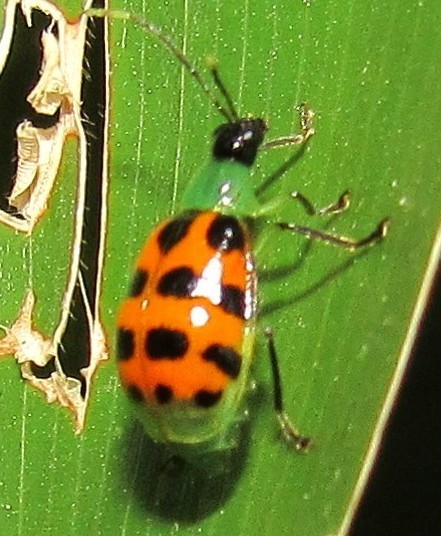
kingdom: Animalia
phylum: Arthropoda
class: Insecta
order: Coleoptera
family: Chrysomelidae
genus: Diabrotica
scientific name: Diabrotica limitata
